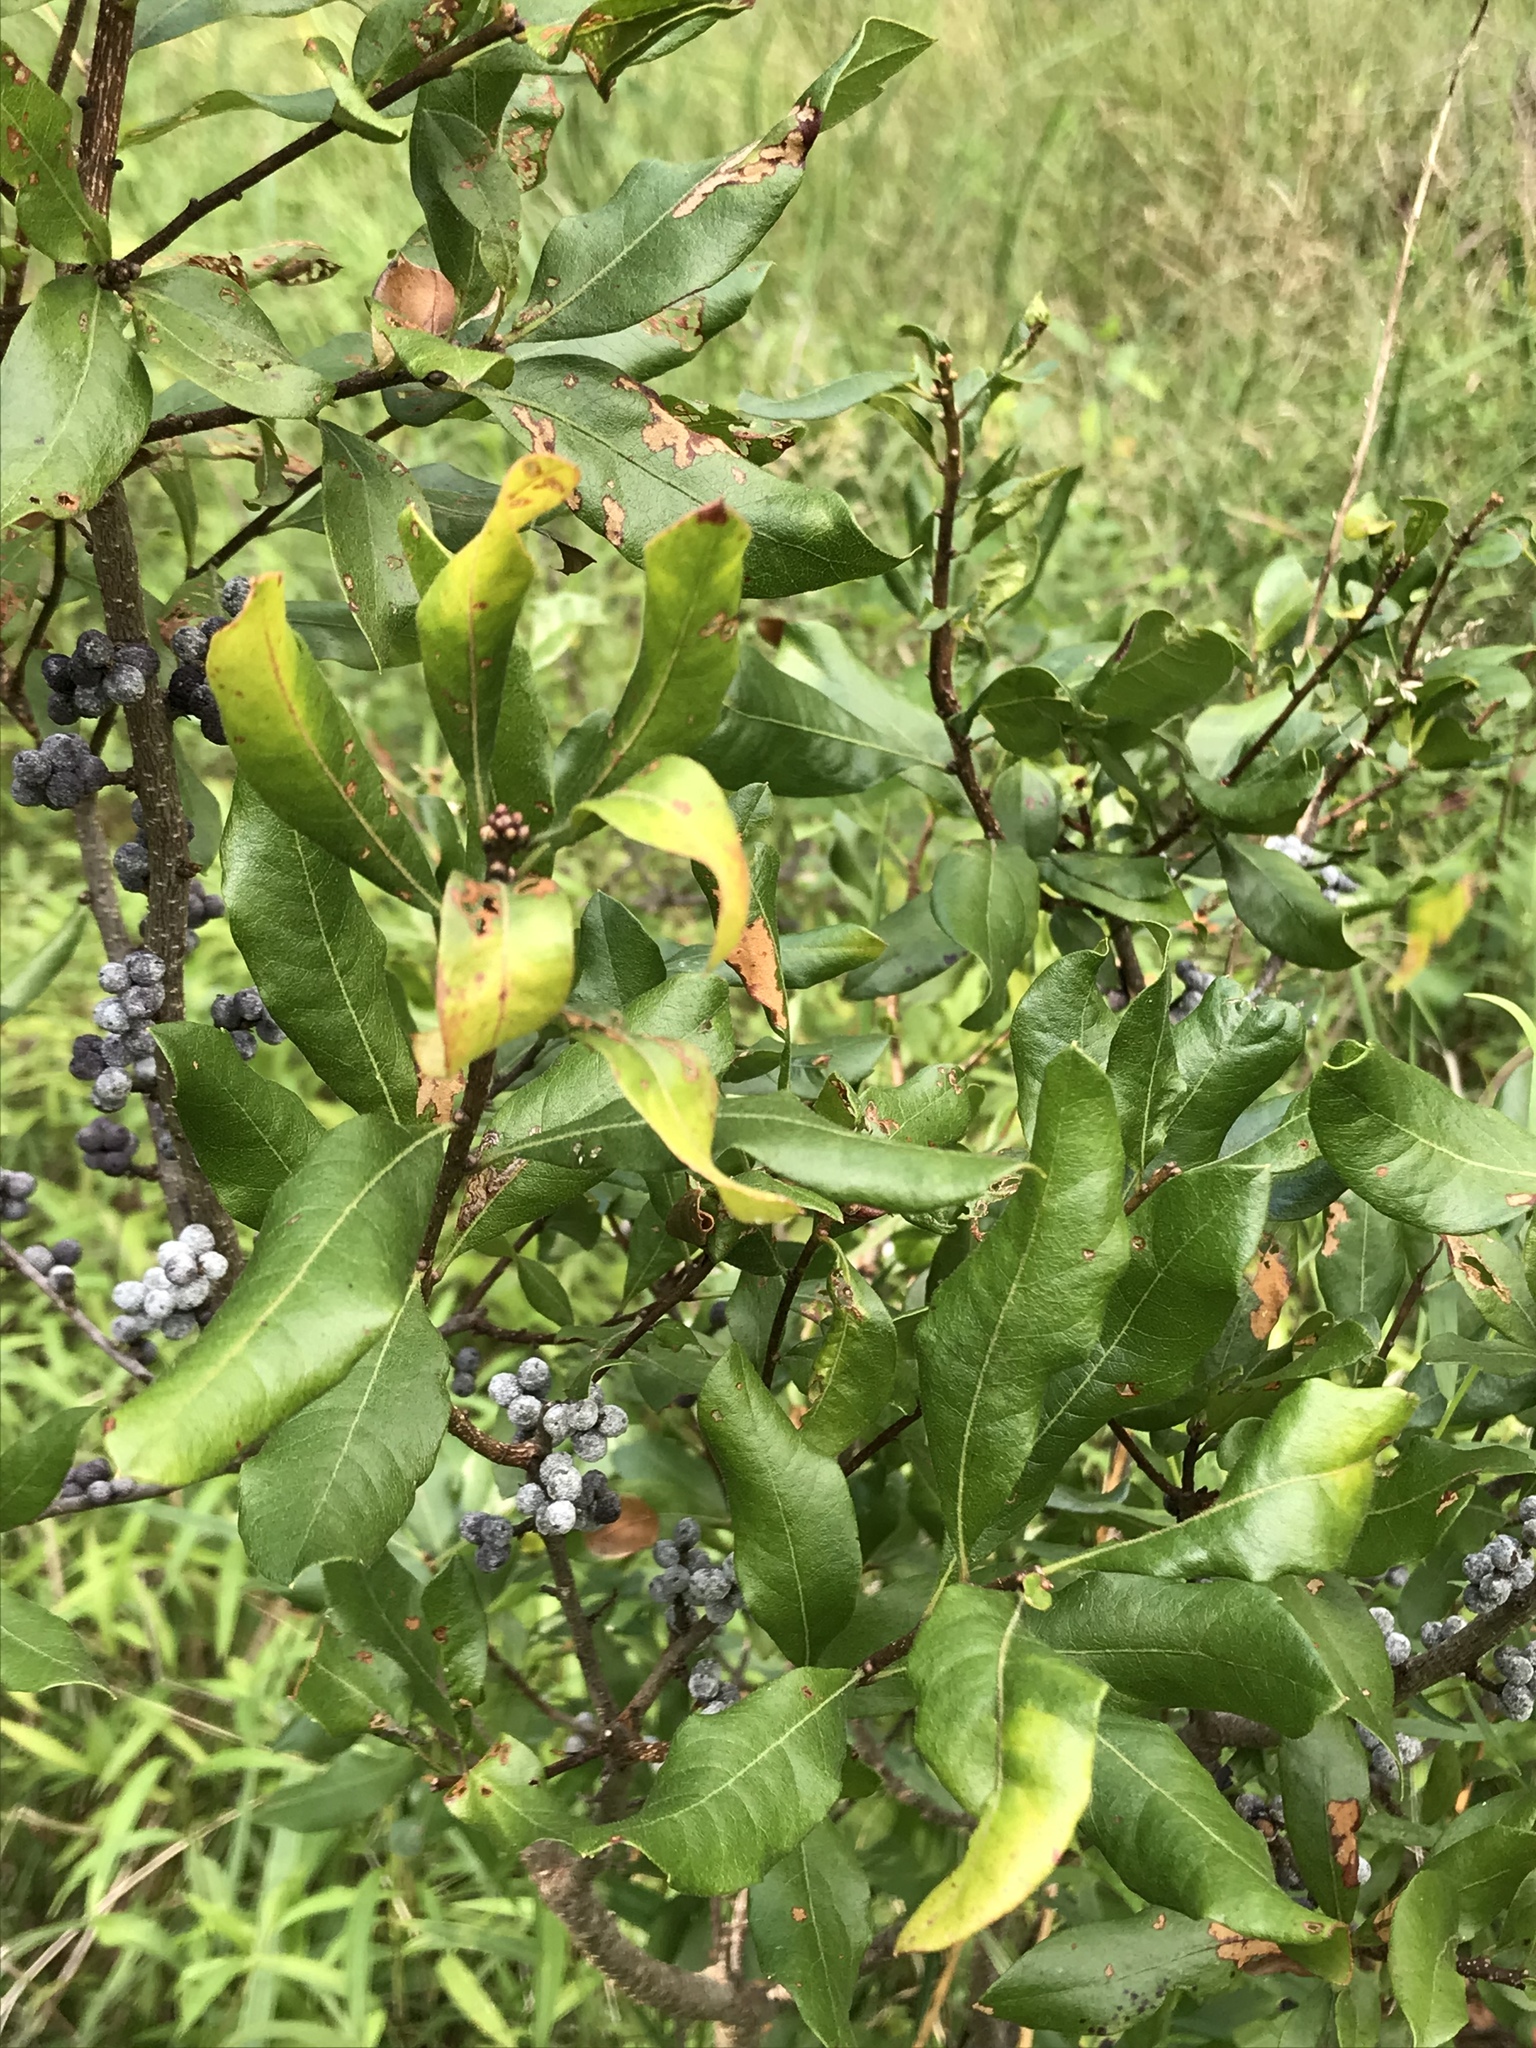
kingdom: Plantae
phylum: Tracheophyta
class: Magnoliopsida
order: Fagales
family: Myricaceae
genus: Morella
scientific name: Morella pensylvanica
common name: Northern bayberry
